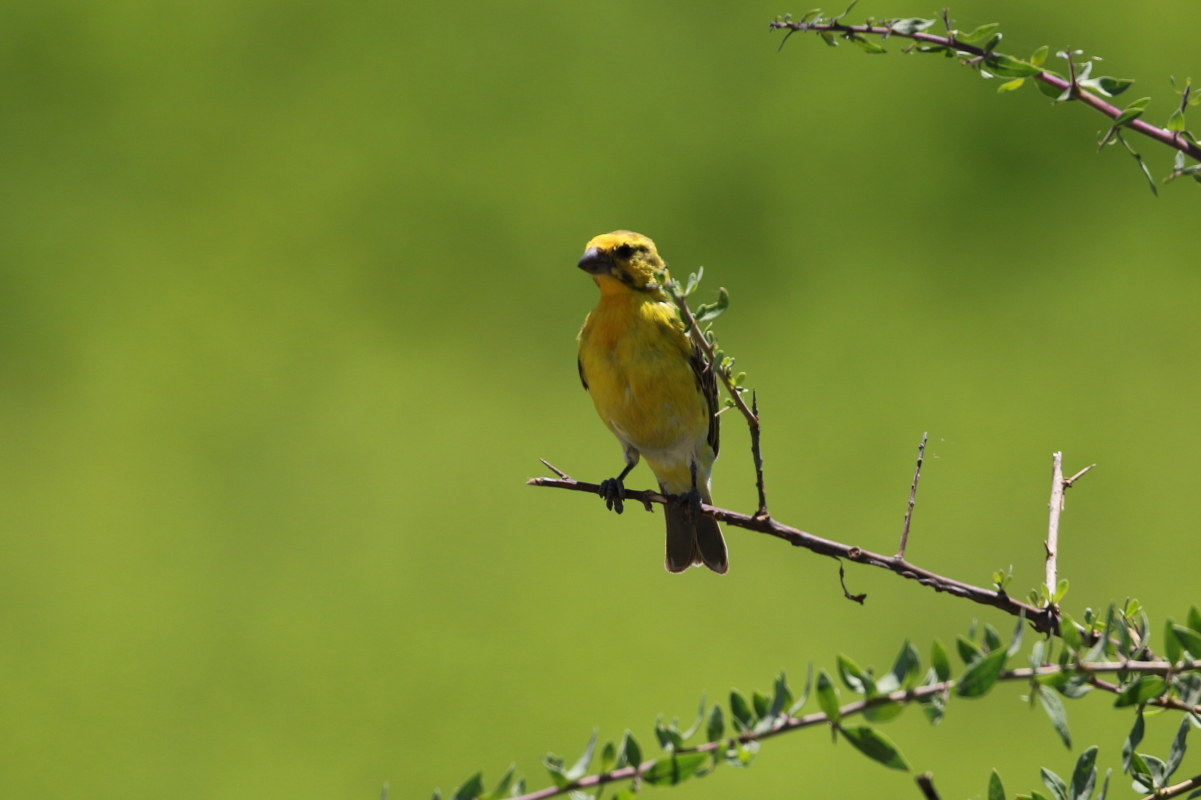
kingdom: Animalia
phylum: Chordata
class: Aves
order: Passeriformes
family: Fringillidae
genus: Crithagra
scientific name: Crithagra dorsostriata
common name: White-bellied canary
